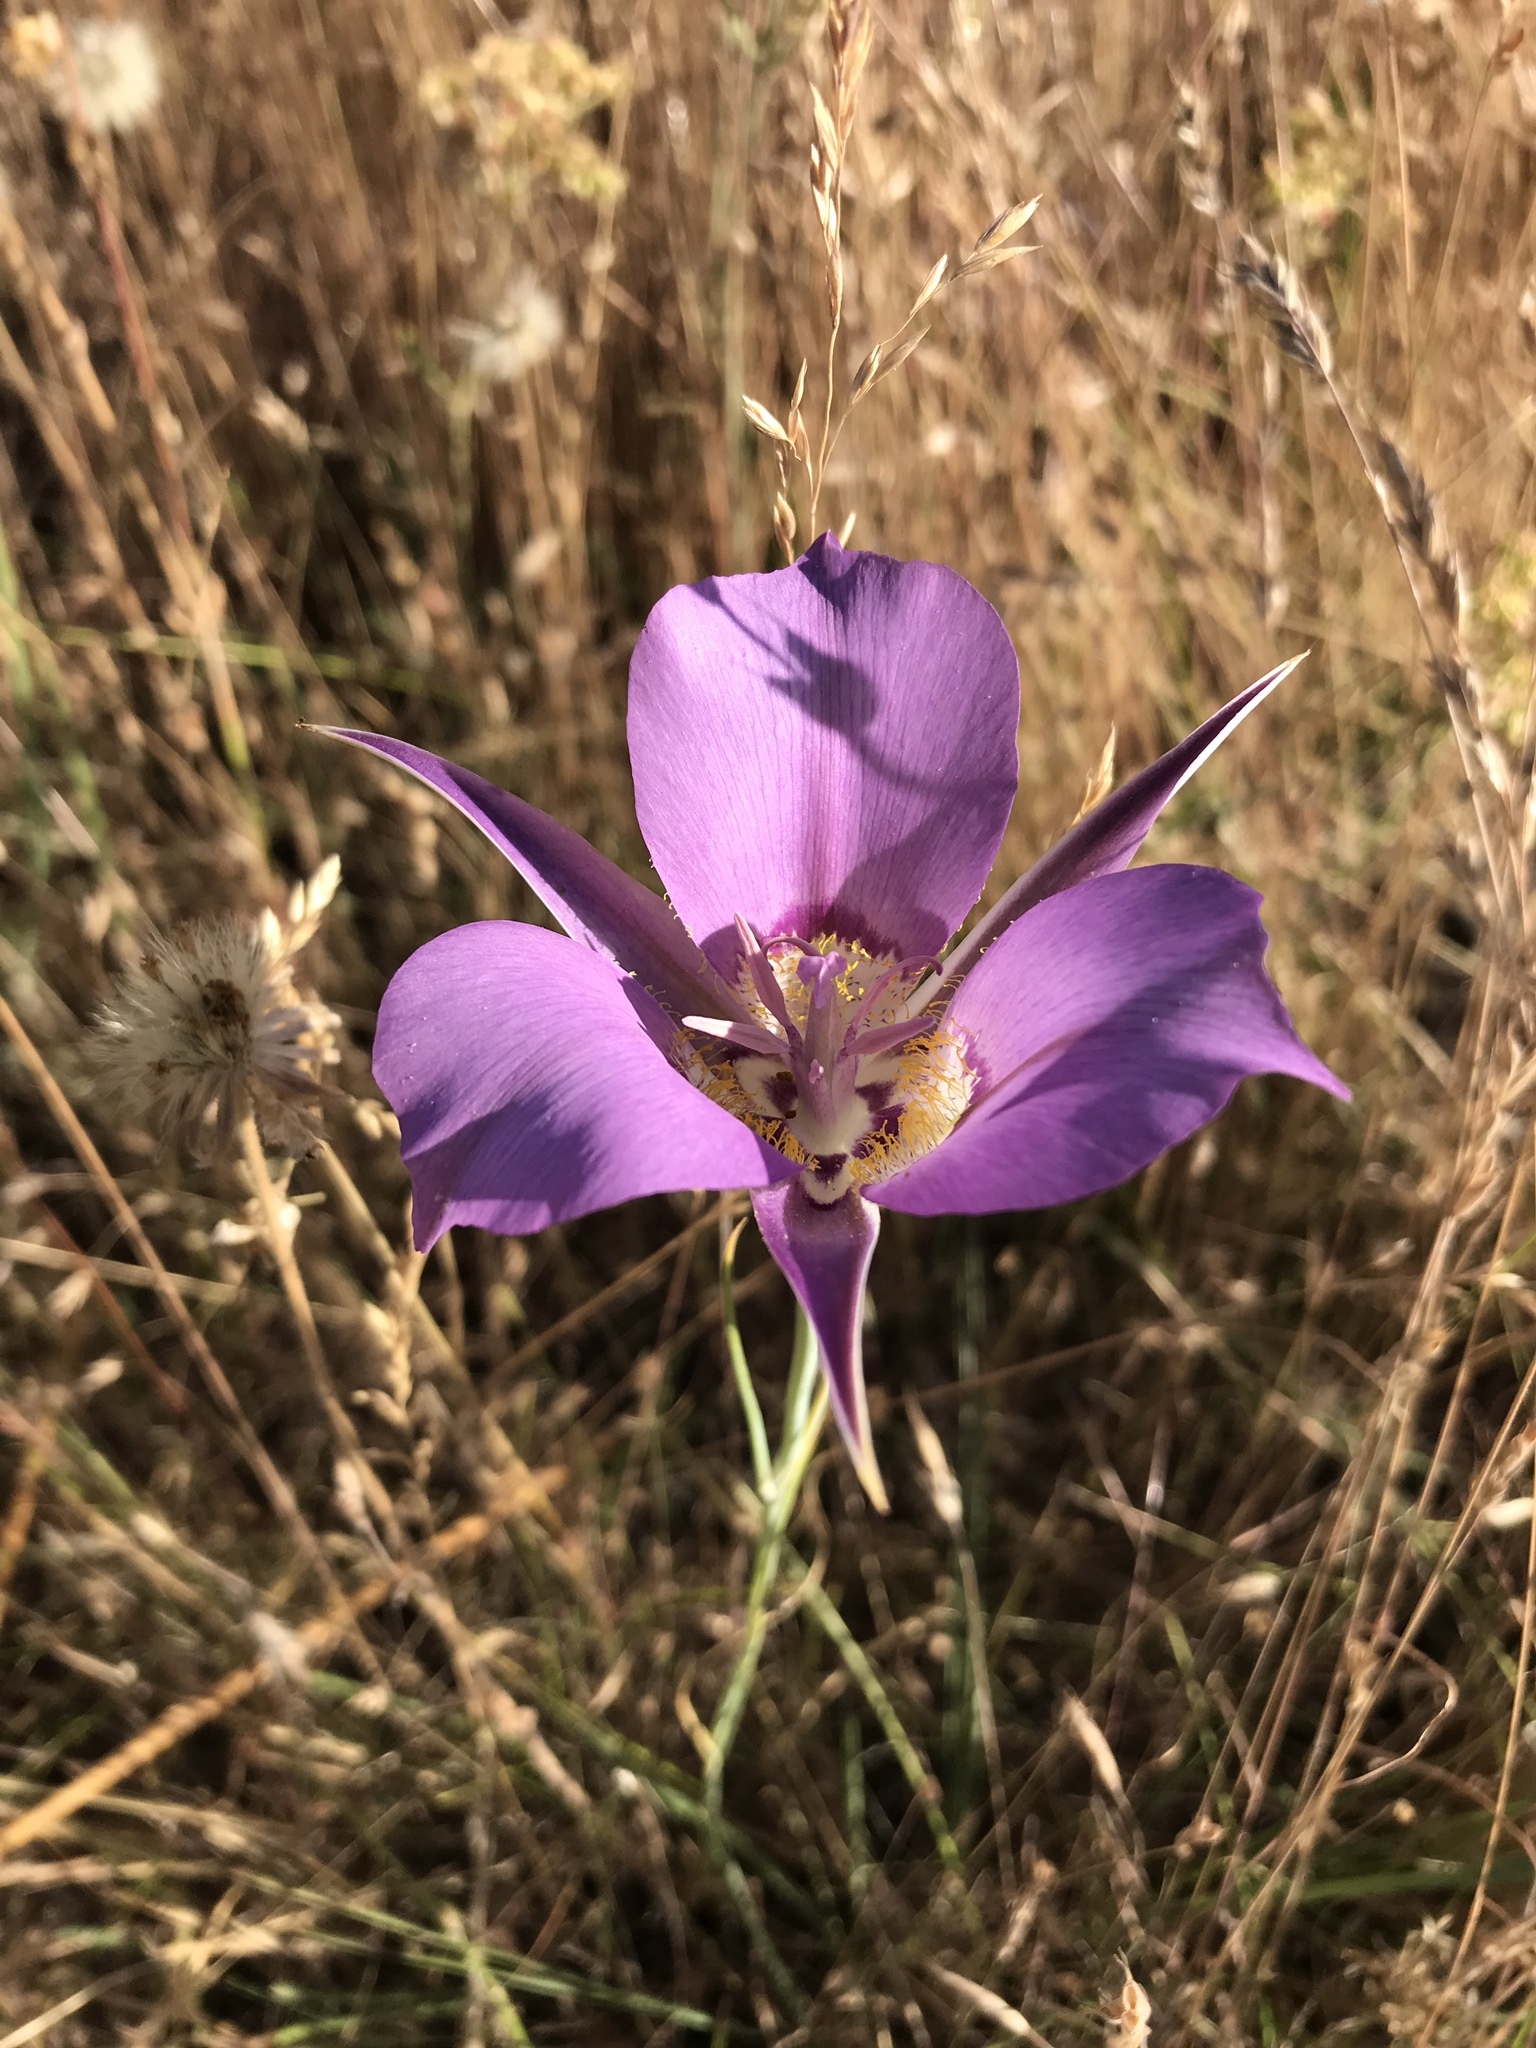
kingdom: Plantae
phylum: Tracheophyta
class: Liliopsida
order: Liliales
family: Liliaceae
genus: Calochortus
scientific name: Calochortus macrocarpus
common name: Green-band mariposa lily
